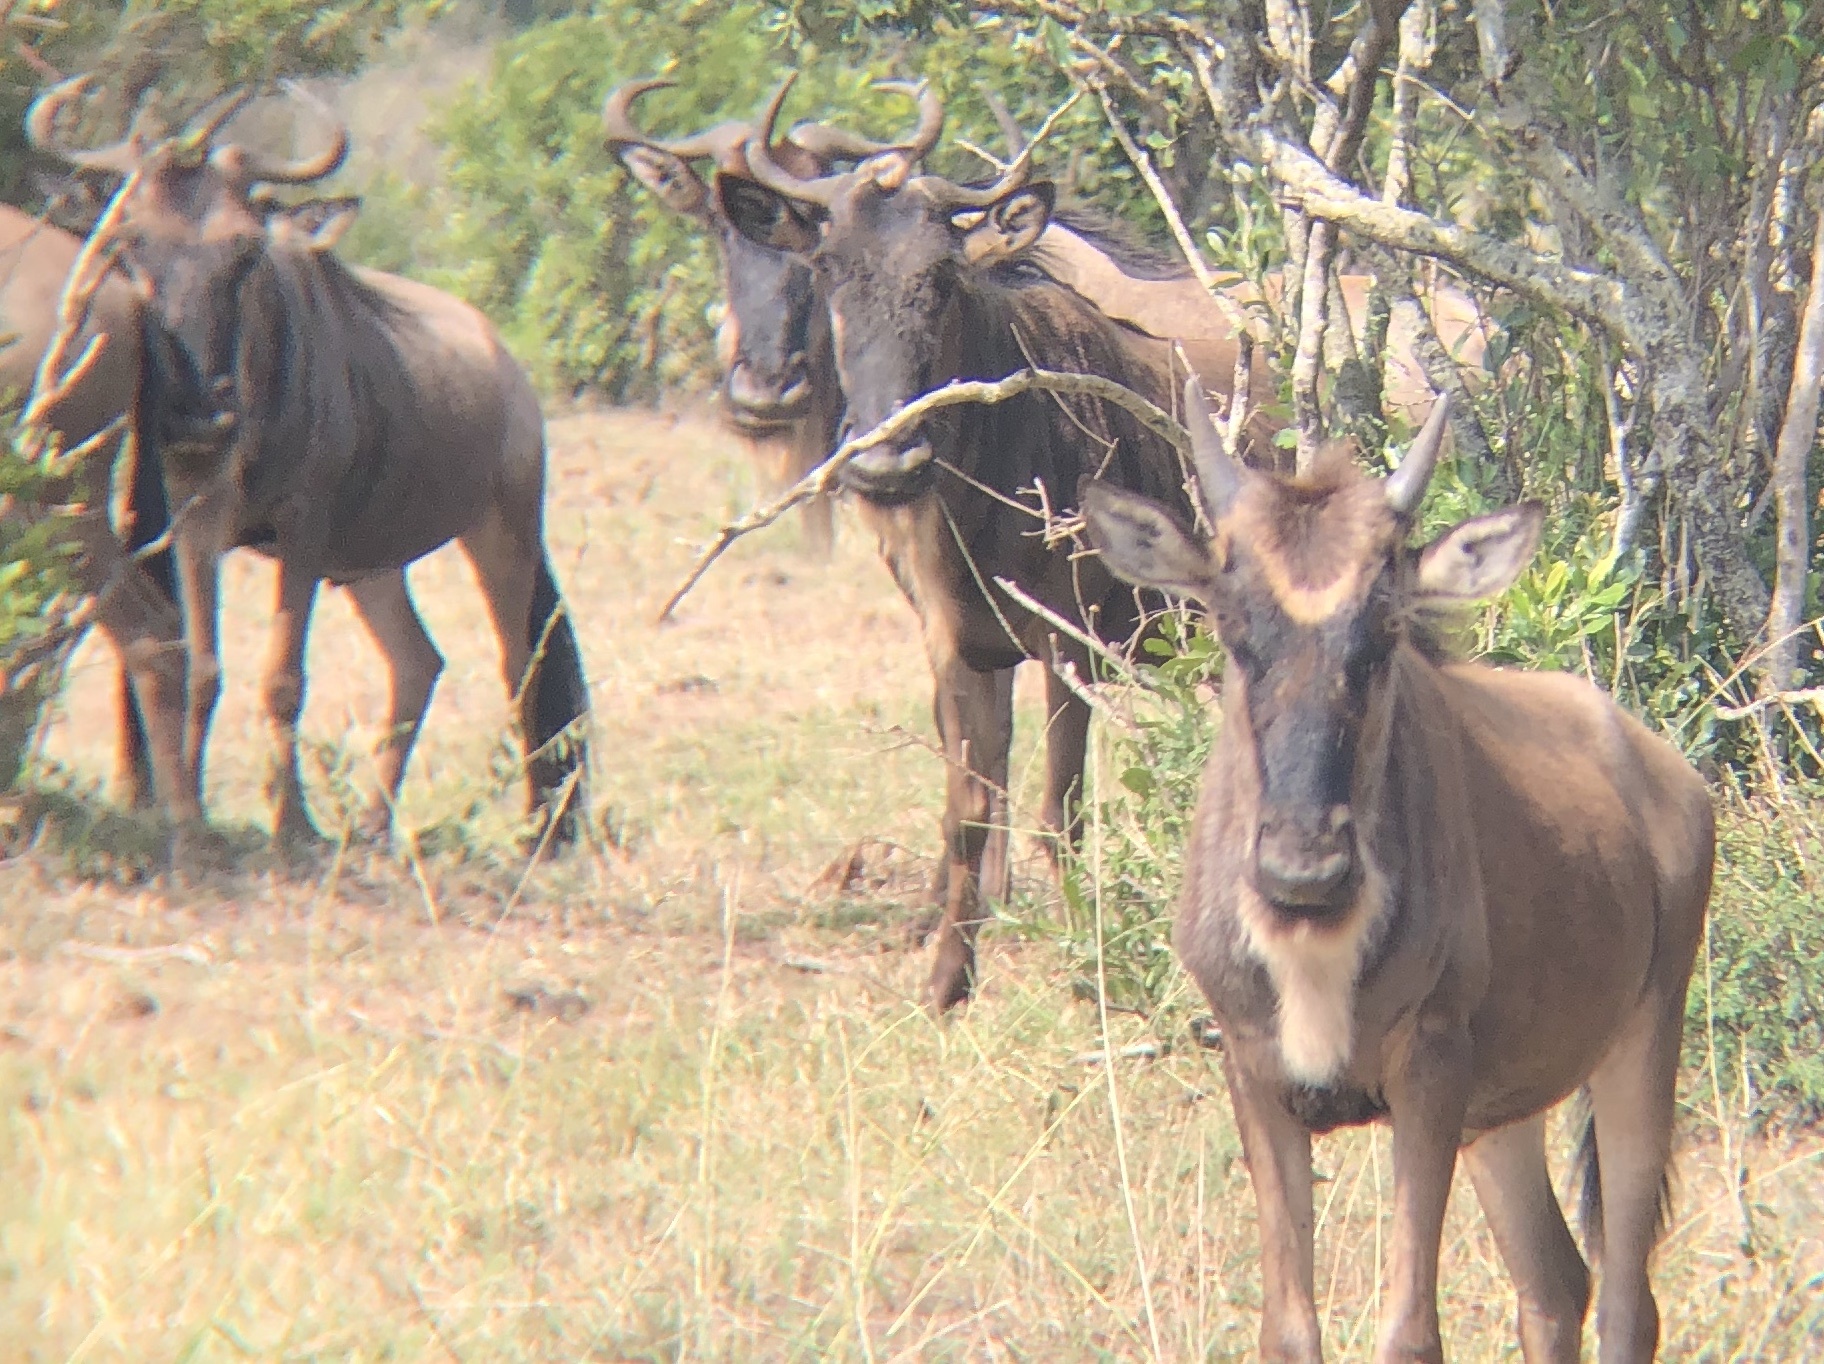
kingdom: Animalia
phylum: Chordata
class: Mammalia
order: Artiodactyla
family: Bovidae
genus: Connochaetes
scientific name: Connochaetes taurinus
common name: Blue wildebeest
